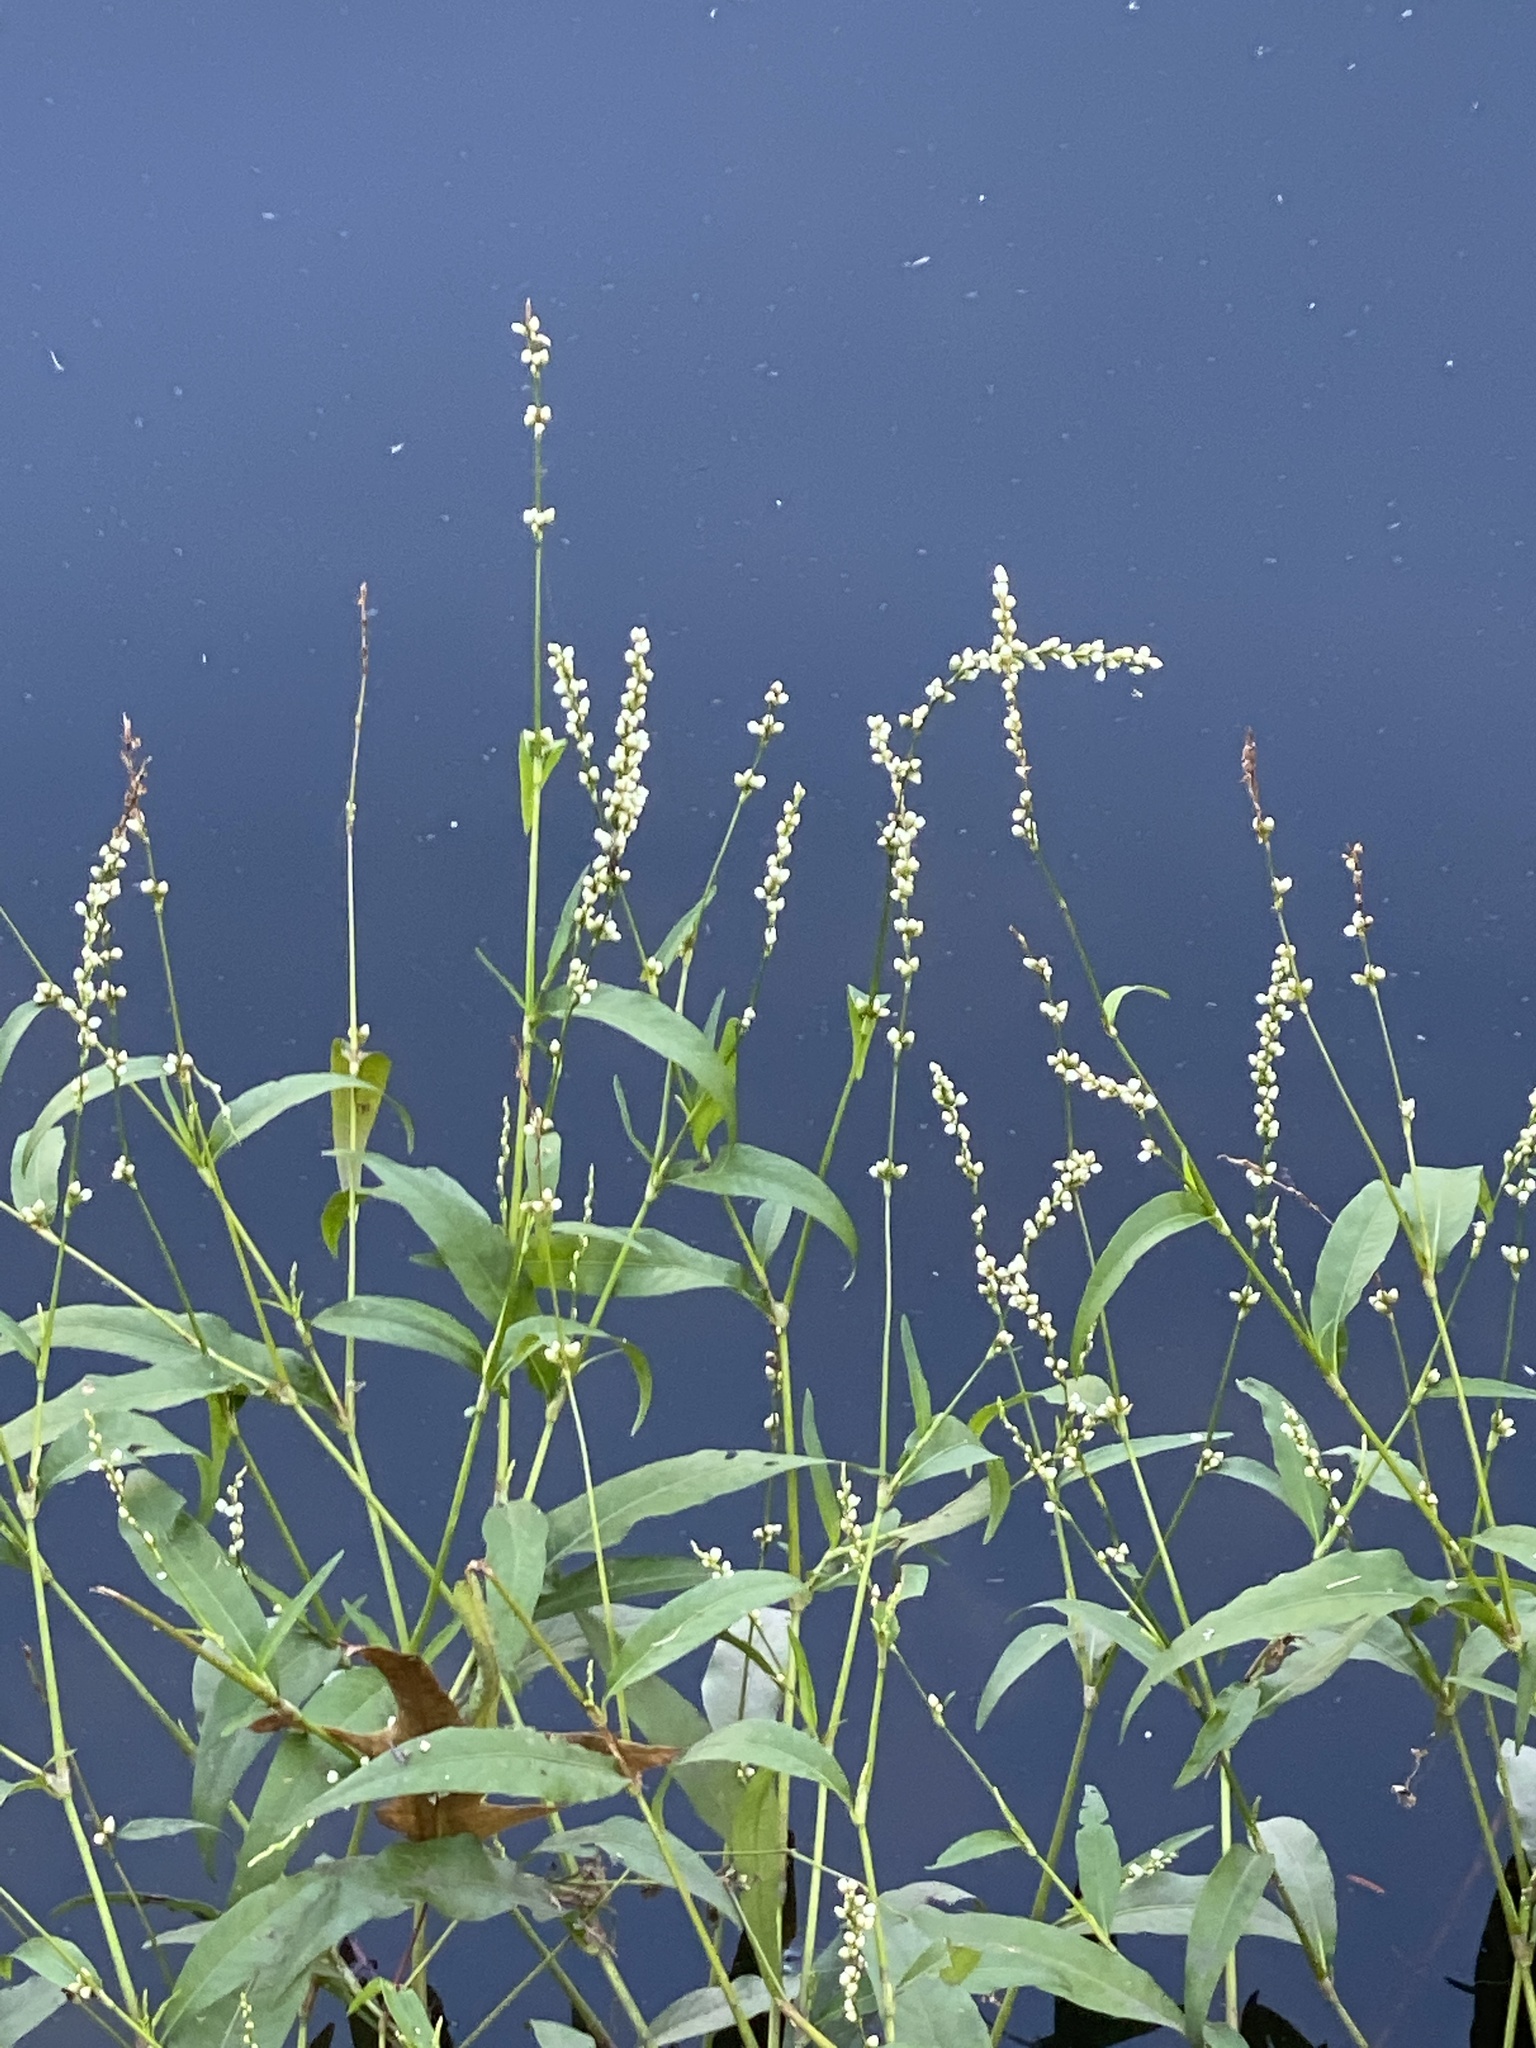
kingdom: Plantae
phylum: Tracheophyta
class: Magnoliopsida
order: Caryophyllales
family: Polygonaceae
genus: Persicaria
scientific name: Persicaria punctata
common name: Dotted smartweed
